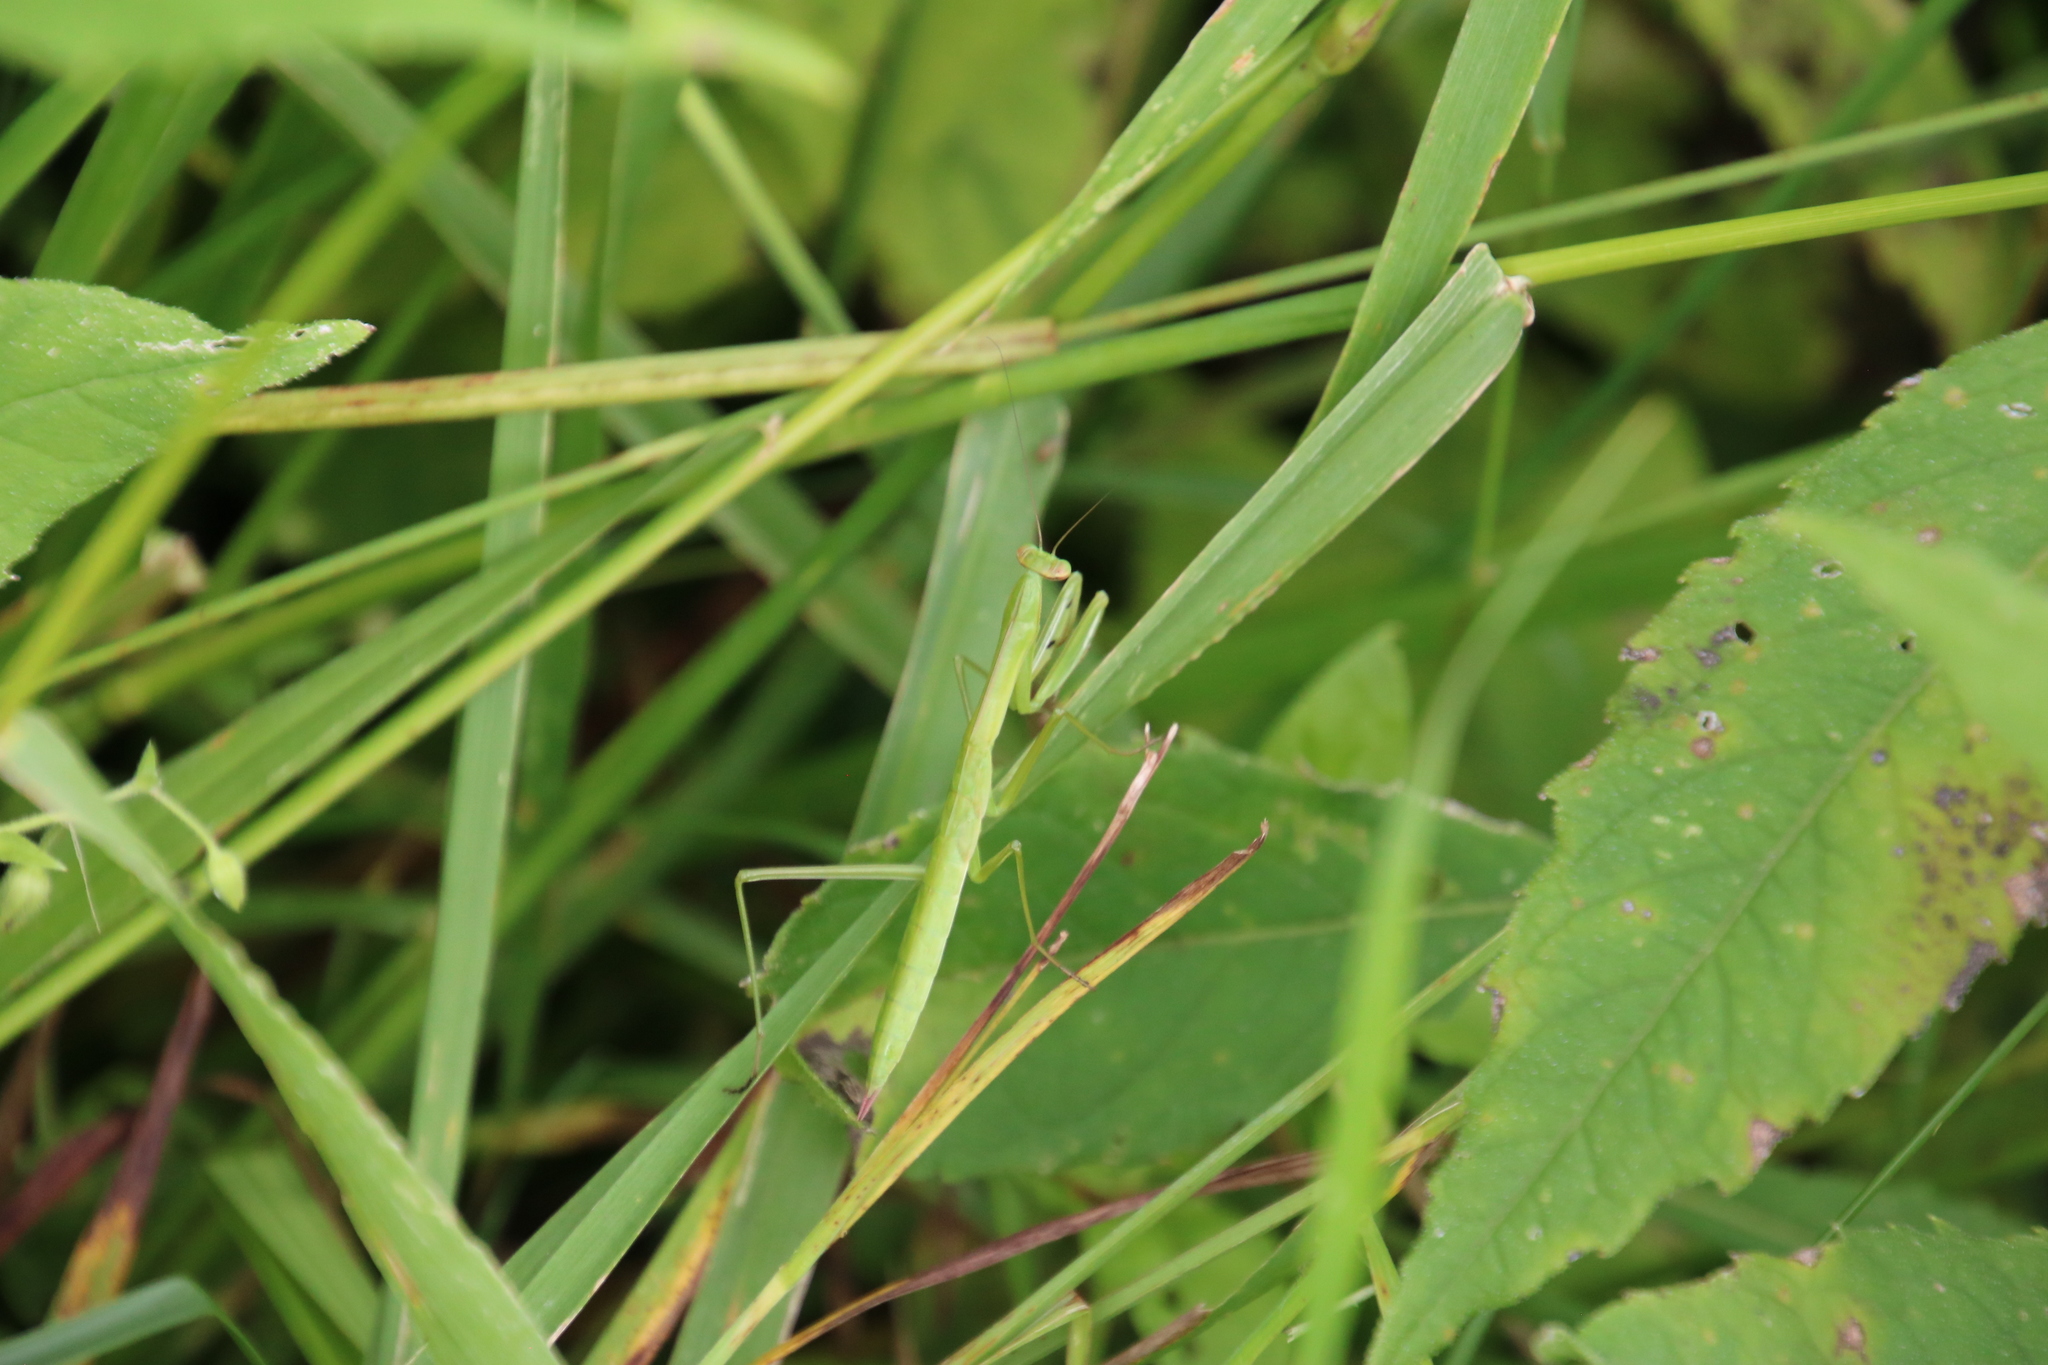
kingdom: Animalia
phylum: Arthropoda
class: Insecta
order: Mantodea
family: Mantidae
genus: Tenodera
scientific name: Tenodera sinensis
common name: Chinese mantis
